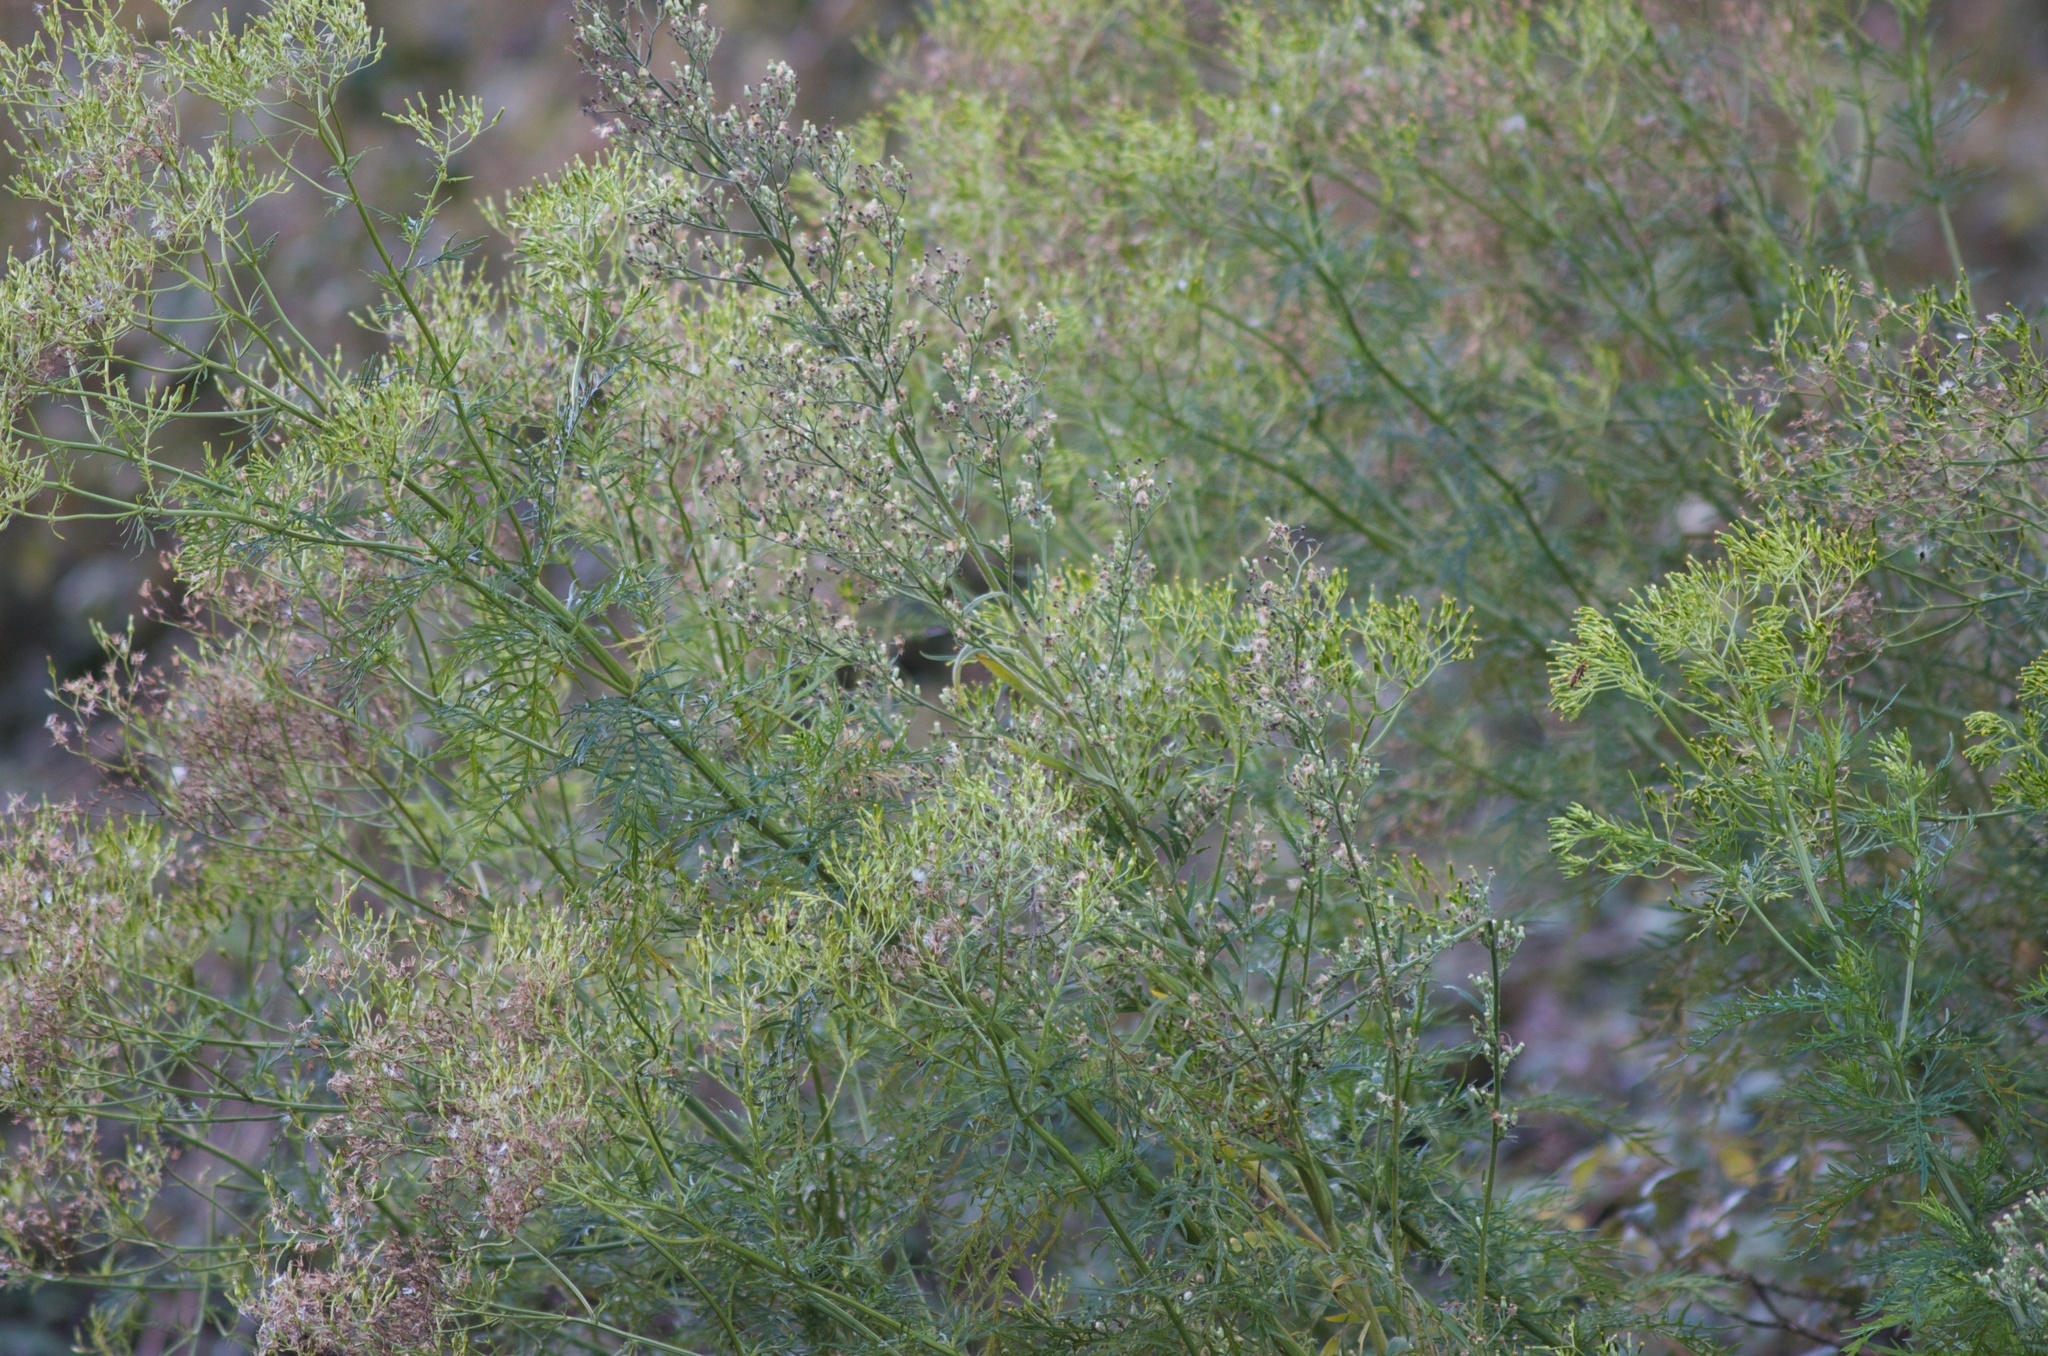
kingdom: Plantae
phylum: Tracheophyta
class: Magnoliopsida
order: Asterales
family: Asteraceae
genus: Senecio
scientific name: Senecio bipinnatisectus
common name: Australian fireweed
